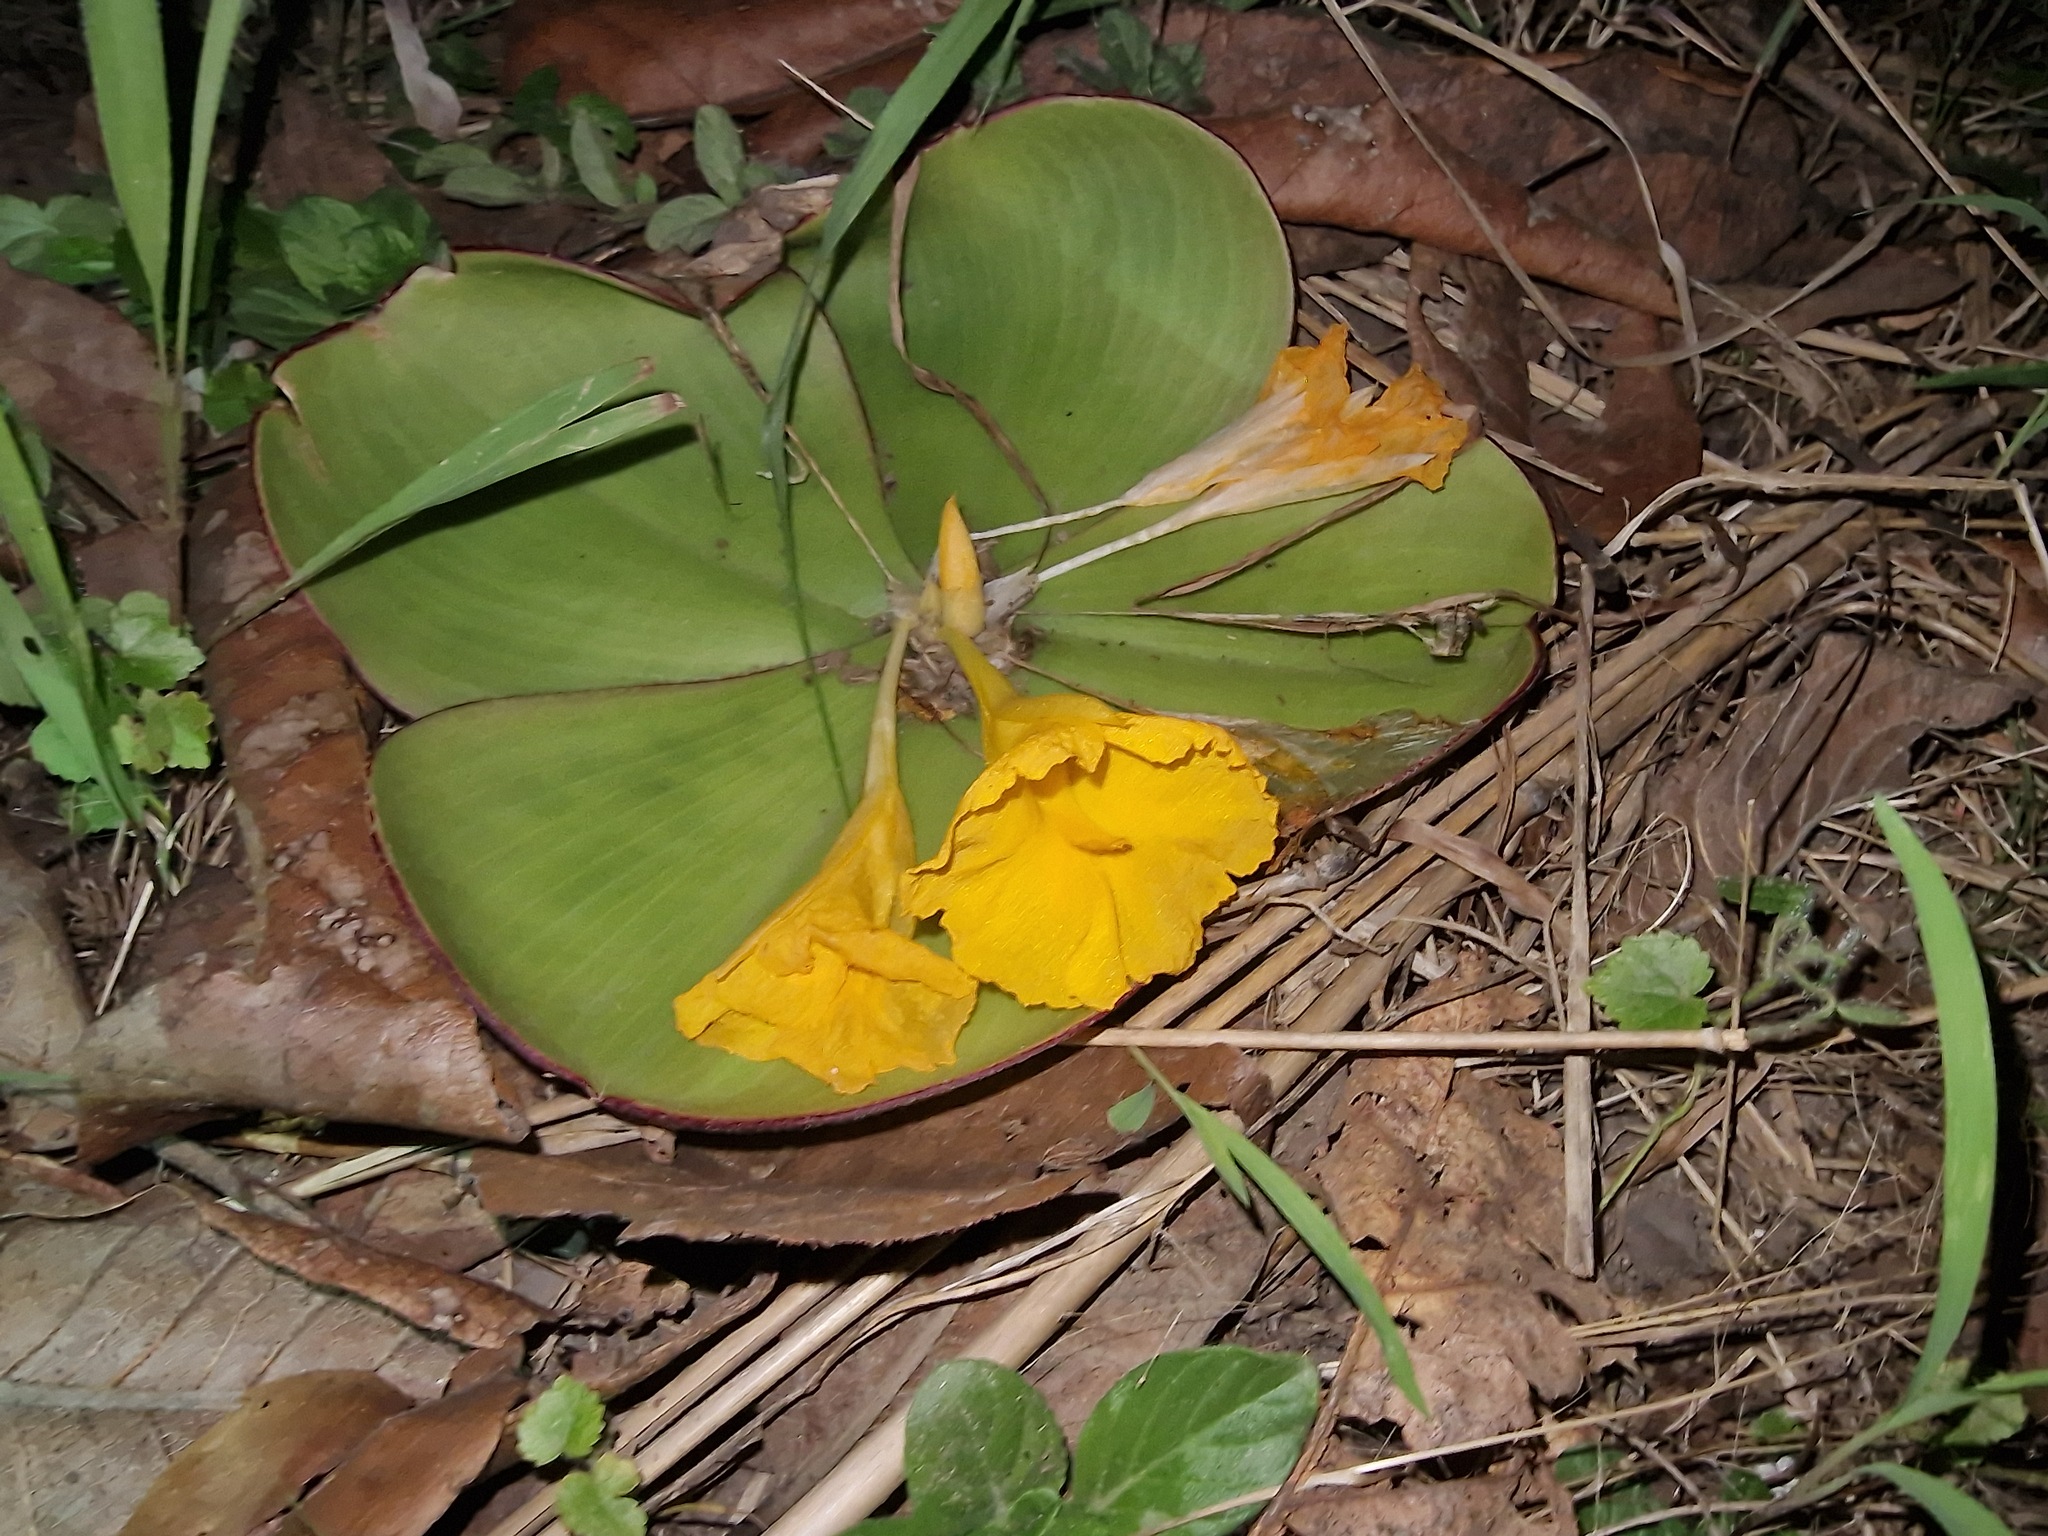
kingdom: Plantae
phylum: Tracheophyta
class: Liliopsida
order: Zingiberales
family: Costaceae
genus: Costus
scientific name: Costus spectabilis
